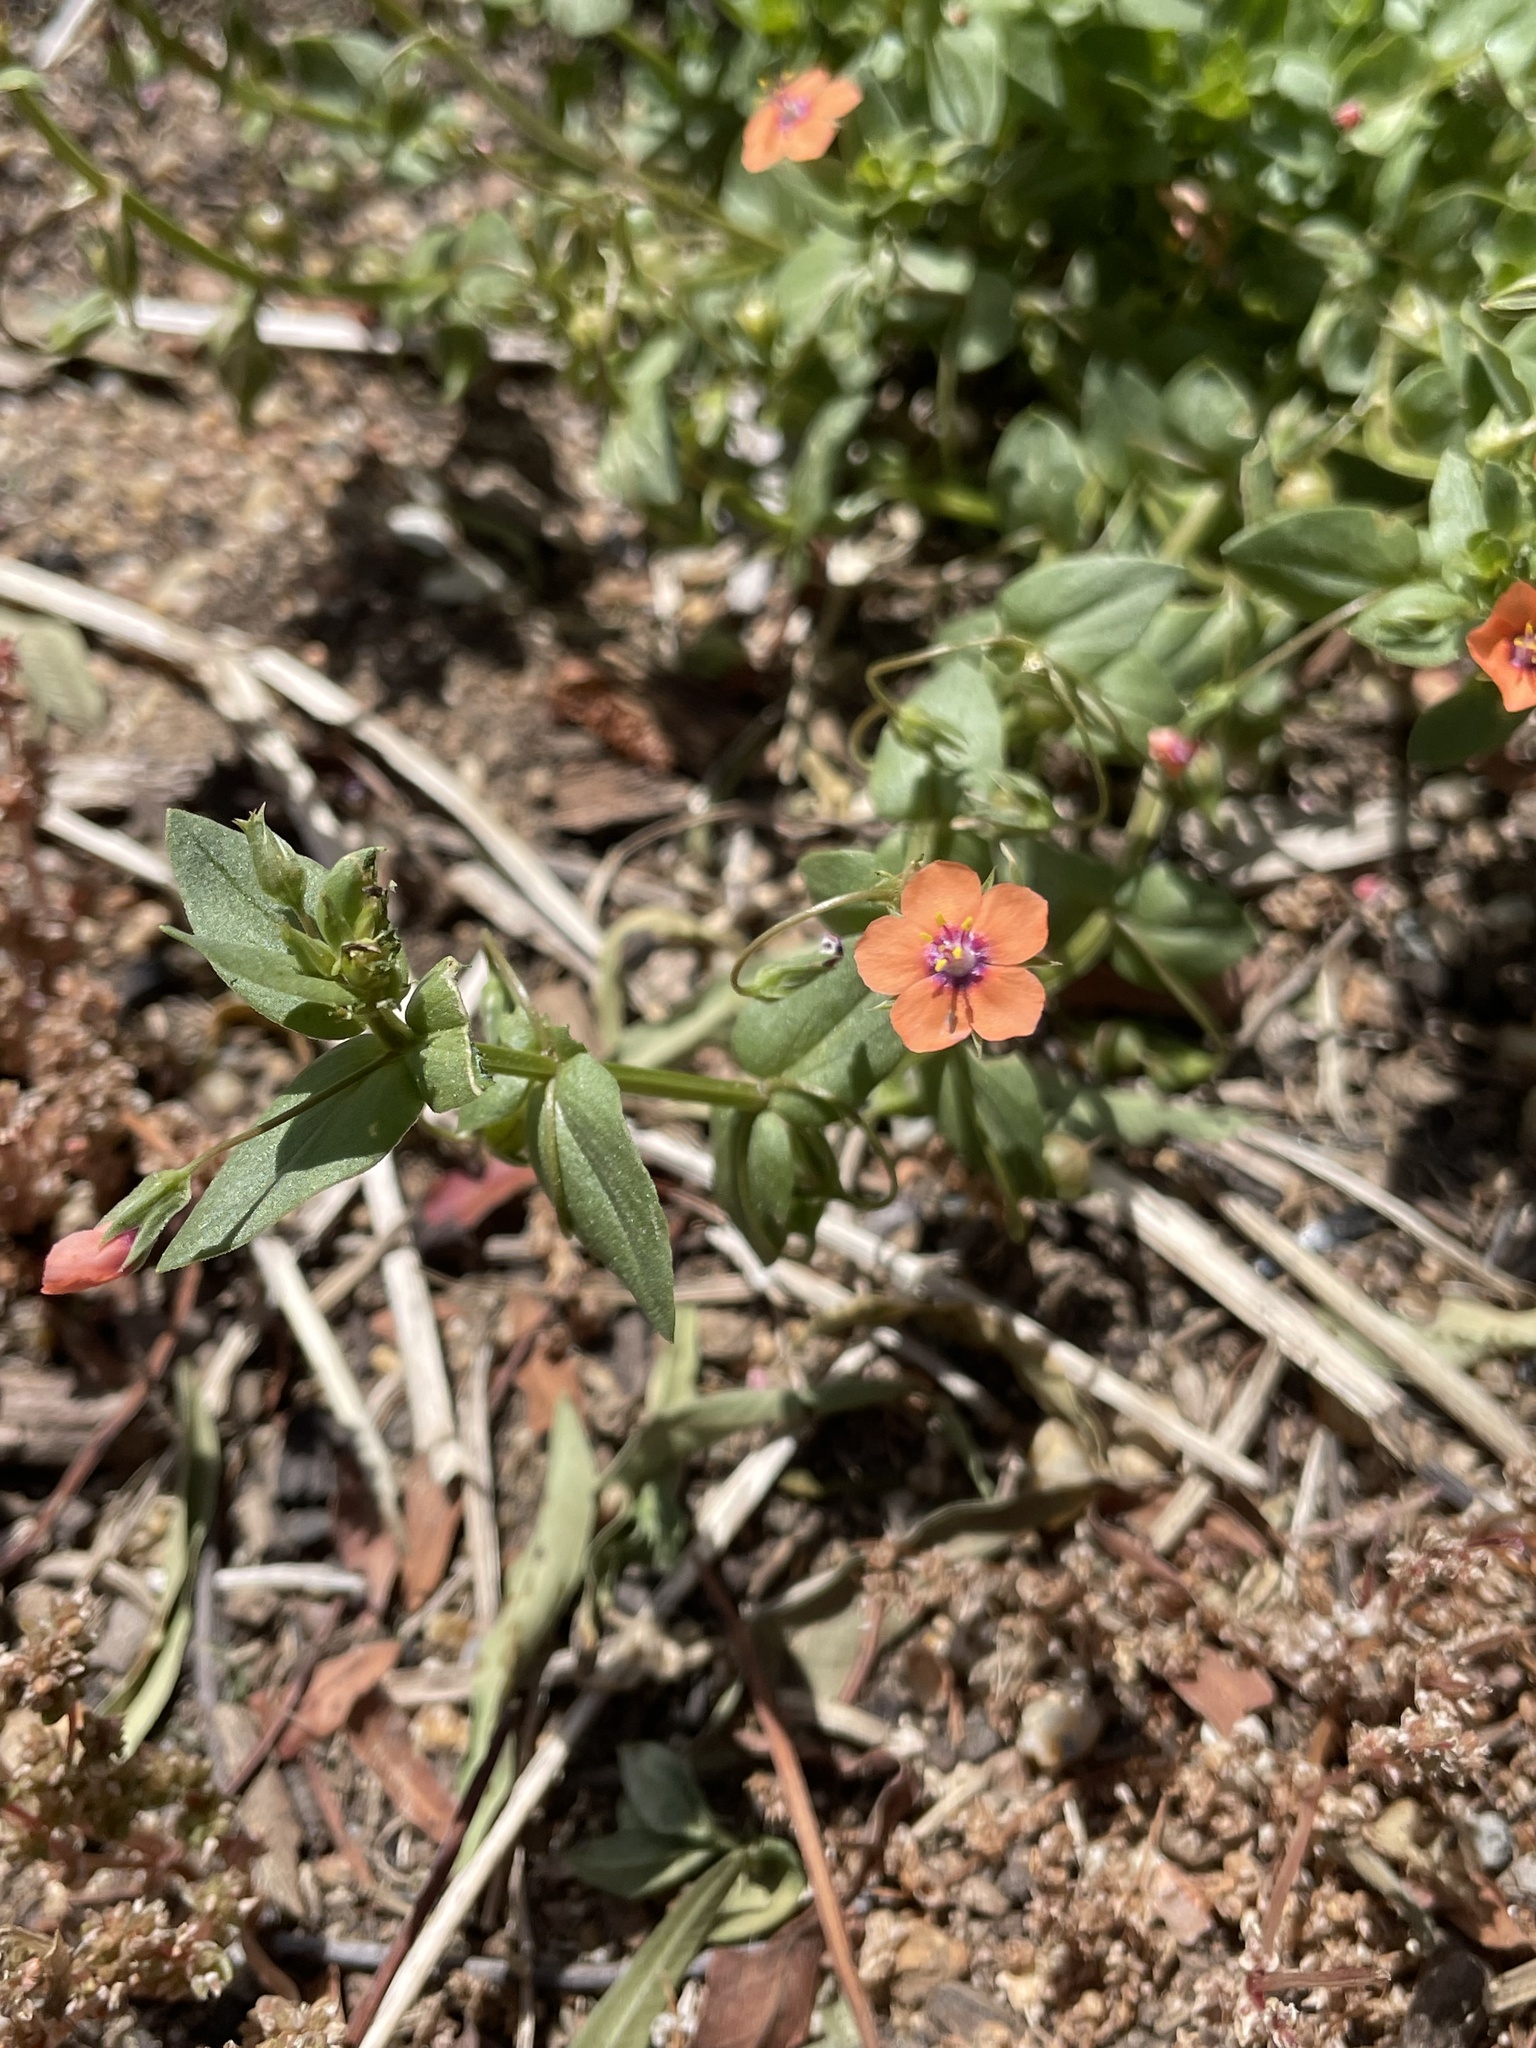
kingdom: Plantae
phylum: Tracheophyta
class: Magnoliopsida
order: Ericales
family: Primulaceae
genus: Lysimachia
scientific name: Lysimachia arvensis
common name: Scarlet pimpernel
